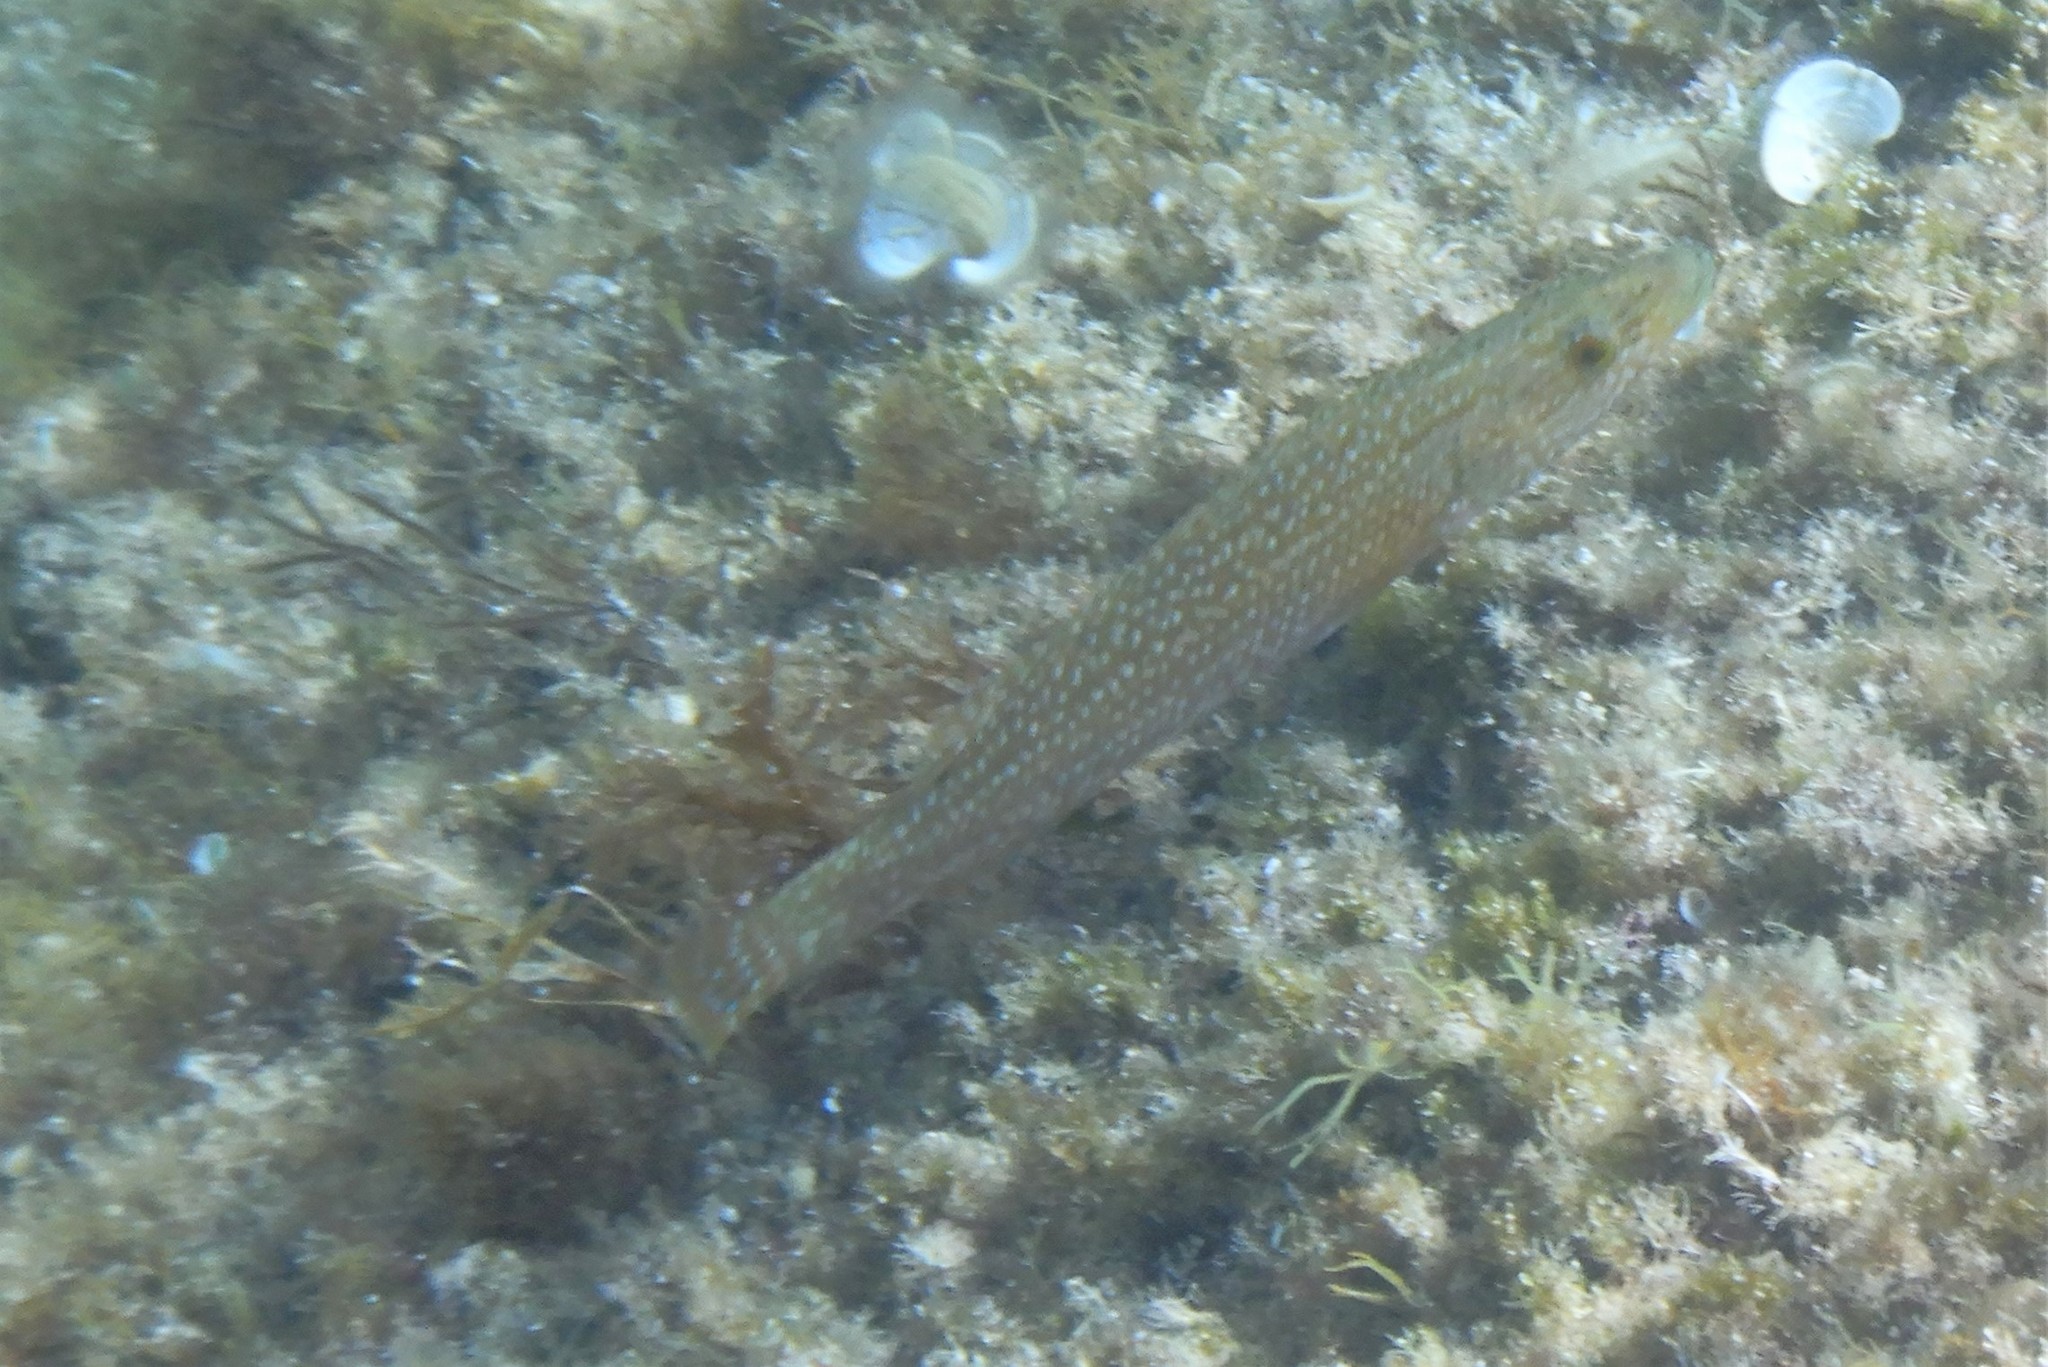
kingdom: Animalia
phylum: Chordata
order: Perciformes
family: Labridae
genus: Labrus
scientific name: Labrus viridis
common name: Green wrasse
